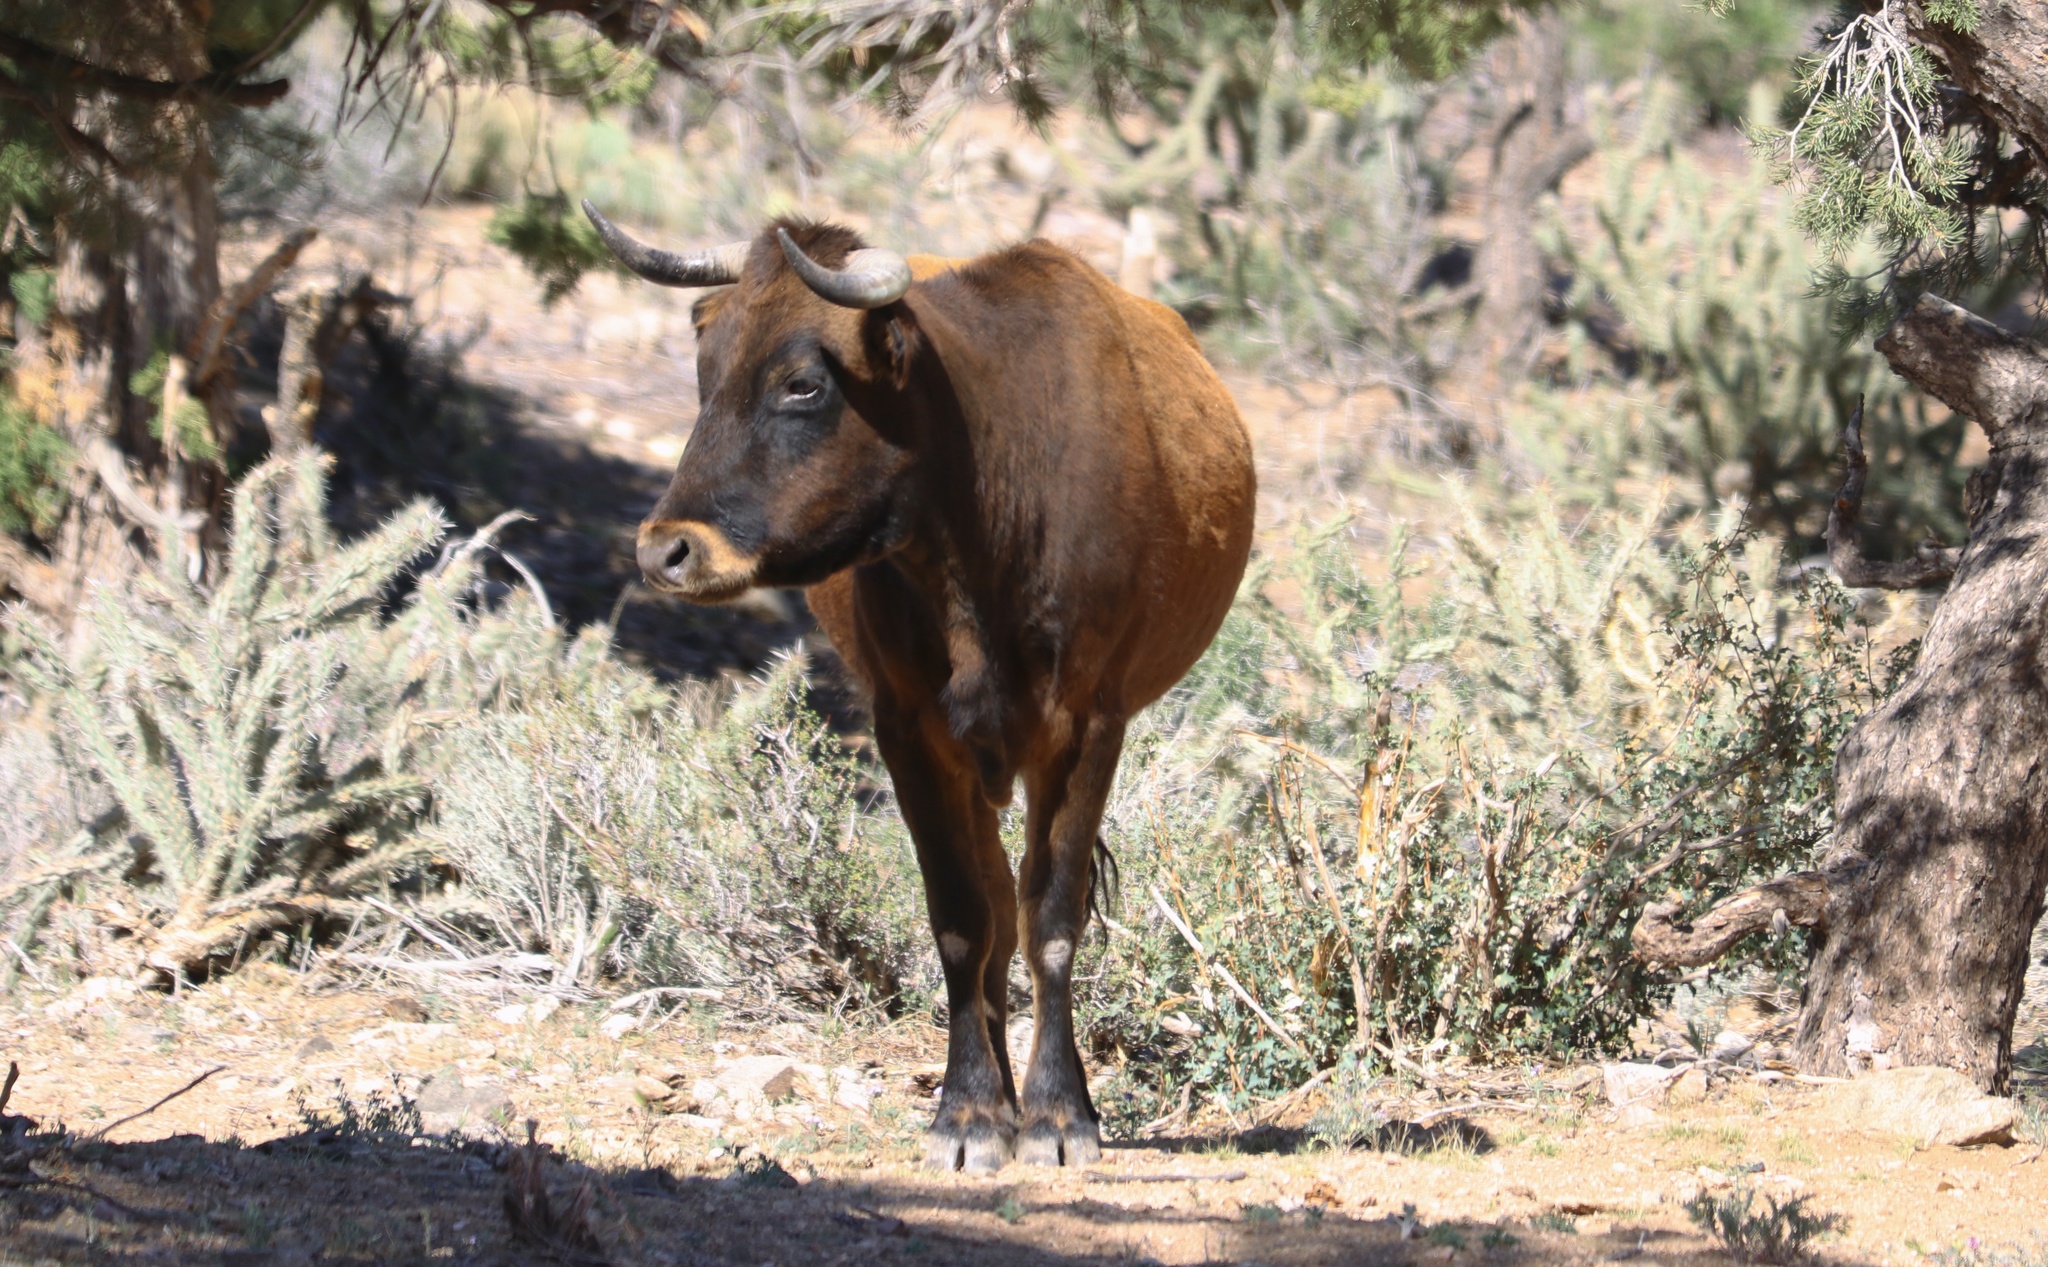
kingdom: Animalia
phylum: Chordata
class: Mammalia
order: Artiodactyla
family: Bovidae
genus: Bos
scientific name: Bos taurus
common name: Domesticated cattle
